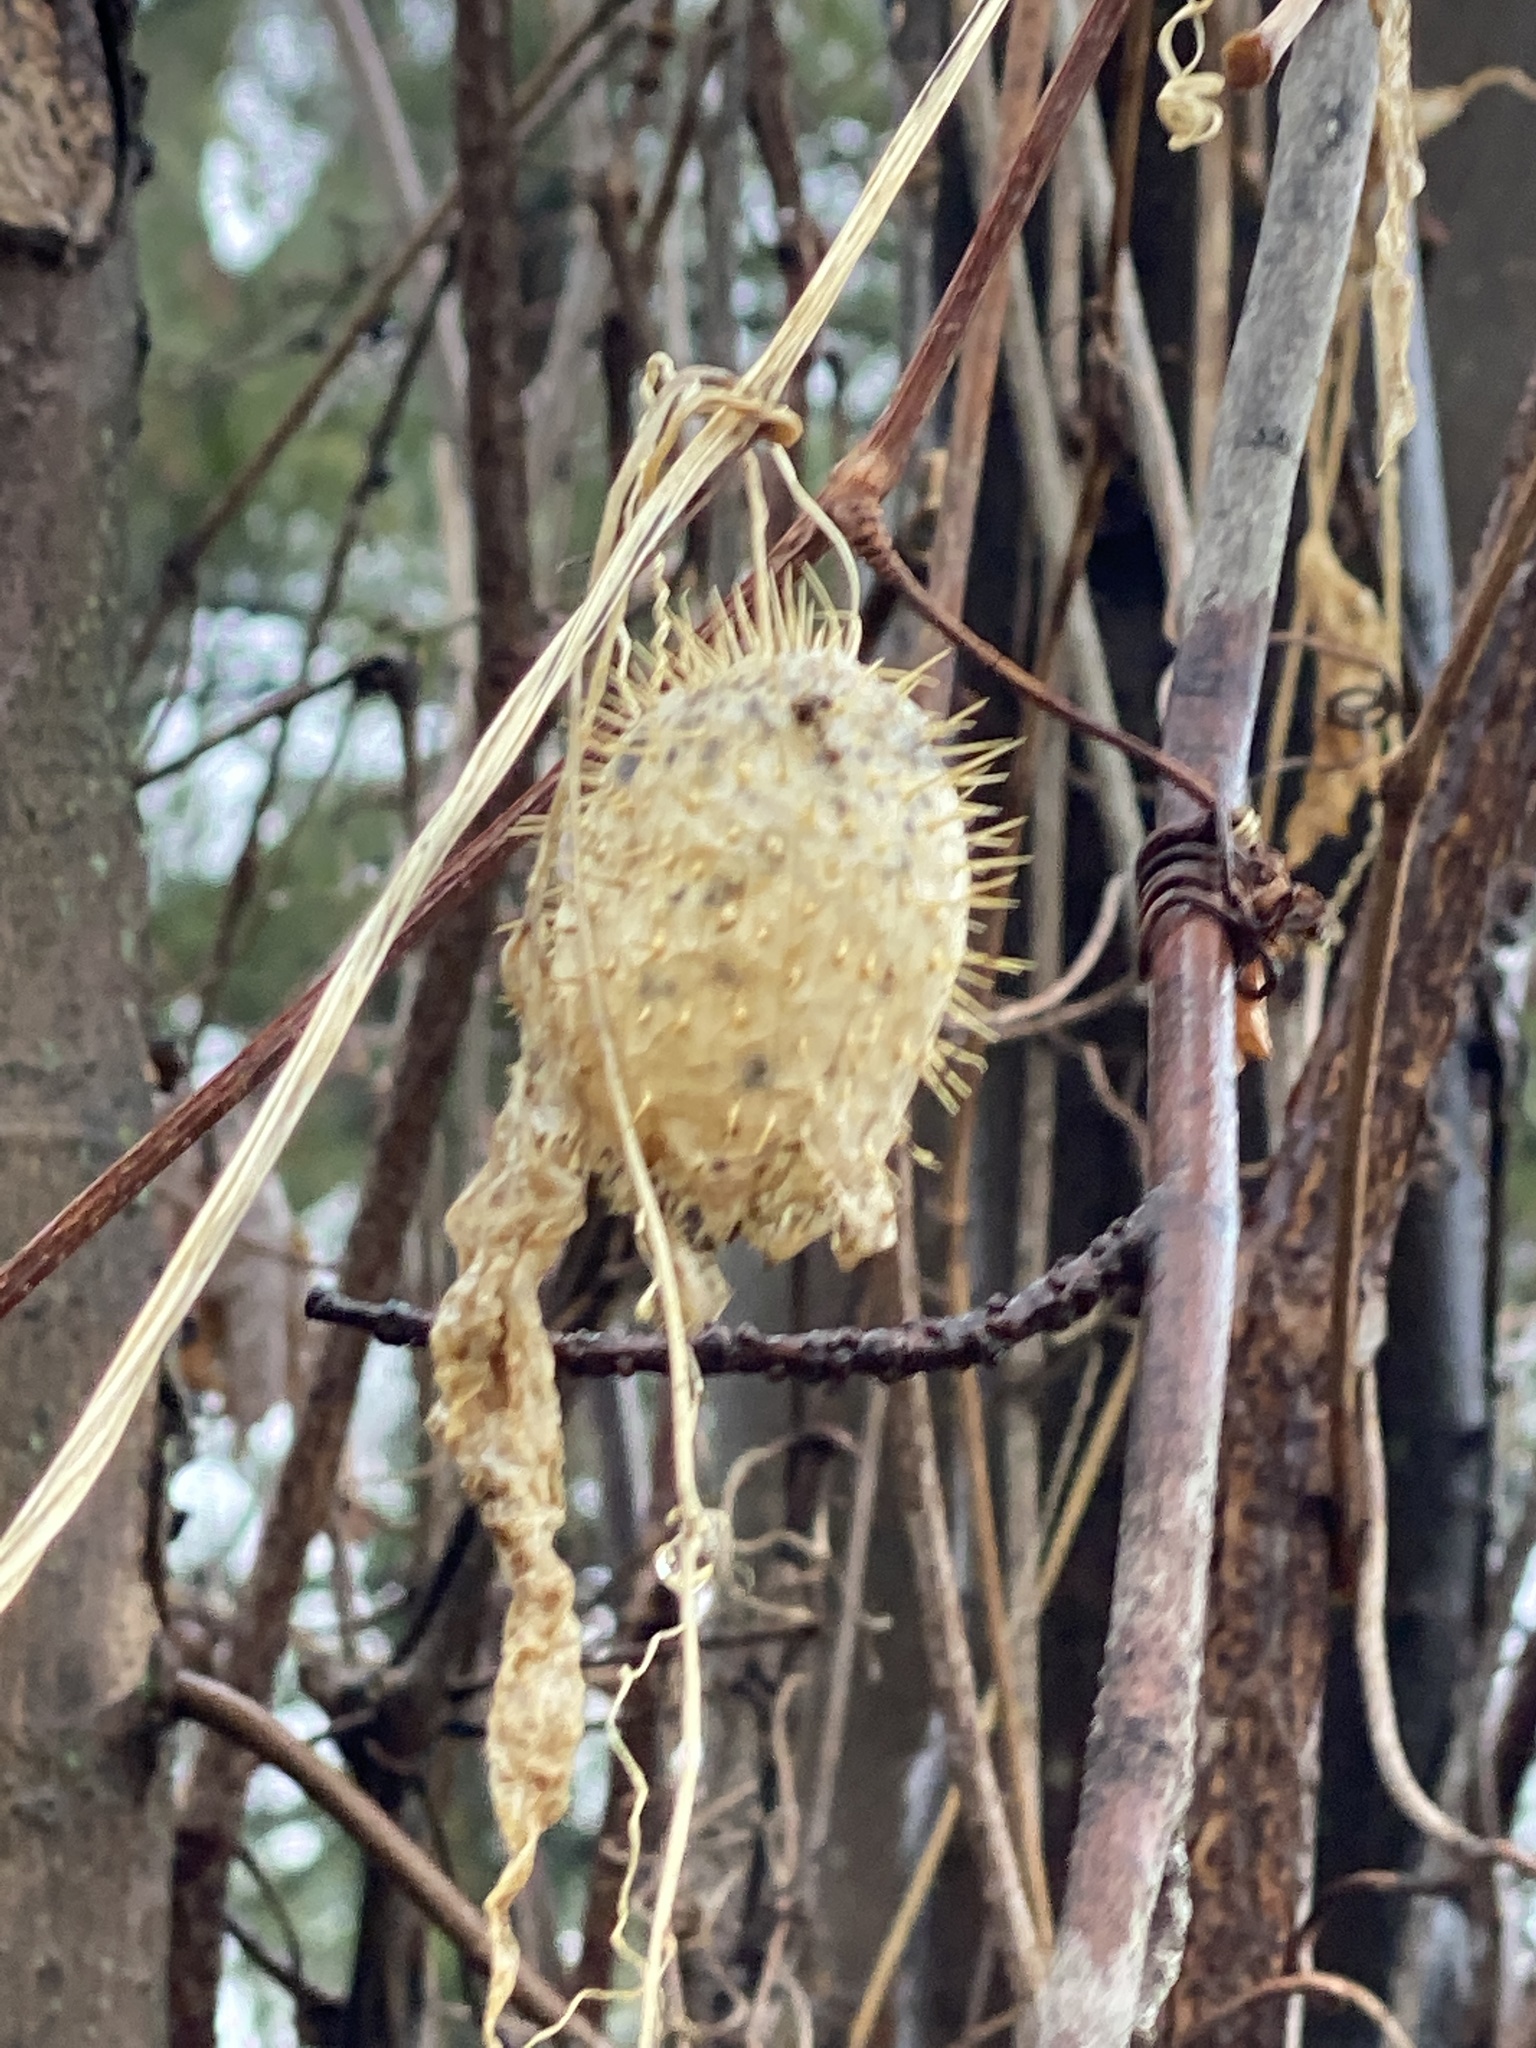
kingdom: Plantae
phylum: Tracheophyta
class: Magnoliopsida
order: Cucurbitales
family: Cucurbitaceae
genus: Echinocystis
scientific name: Echinocystis lobata
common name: Wild cucumber
